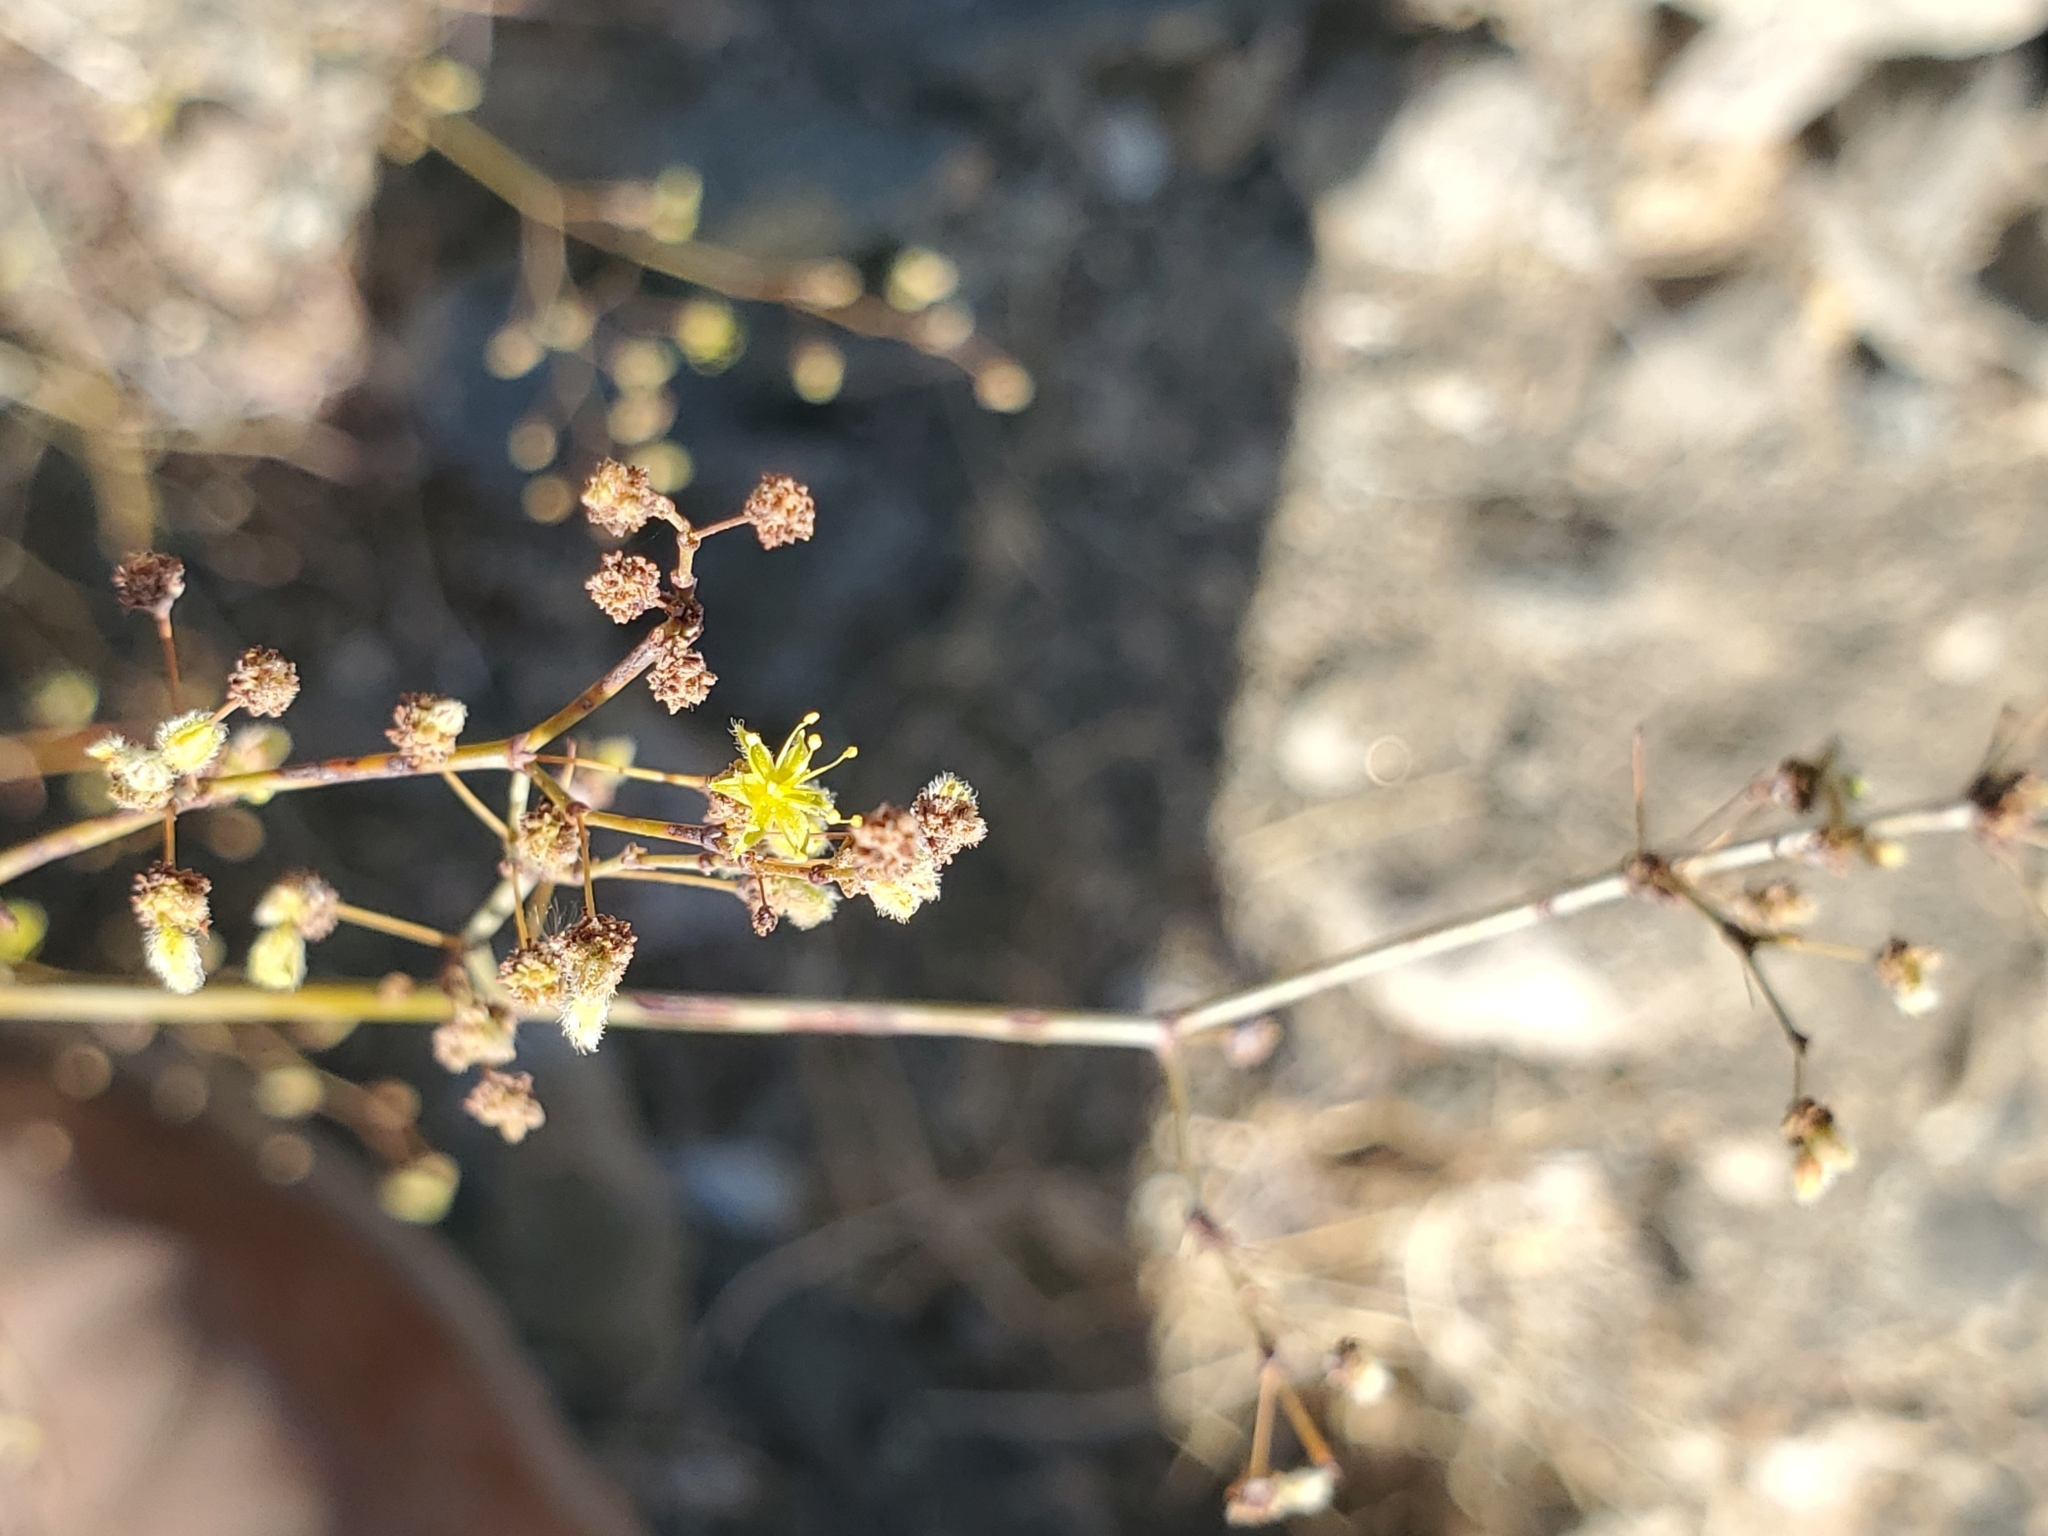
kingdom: Plantae
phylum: Tracheophyta
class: Magnoliopsida
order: Caryophyllales
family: Polygonaceae
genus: Eriogonum
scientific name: Eriogonum inflatum
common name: Desert trumpet
